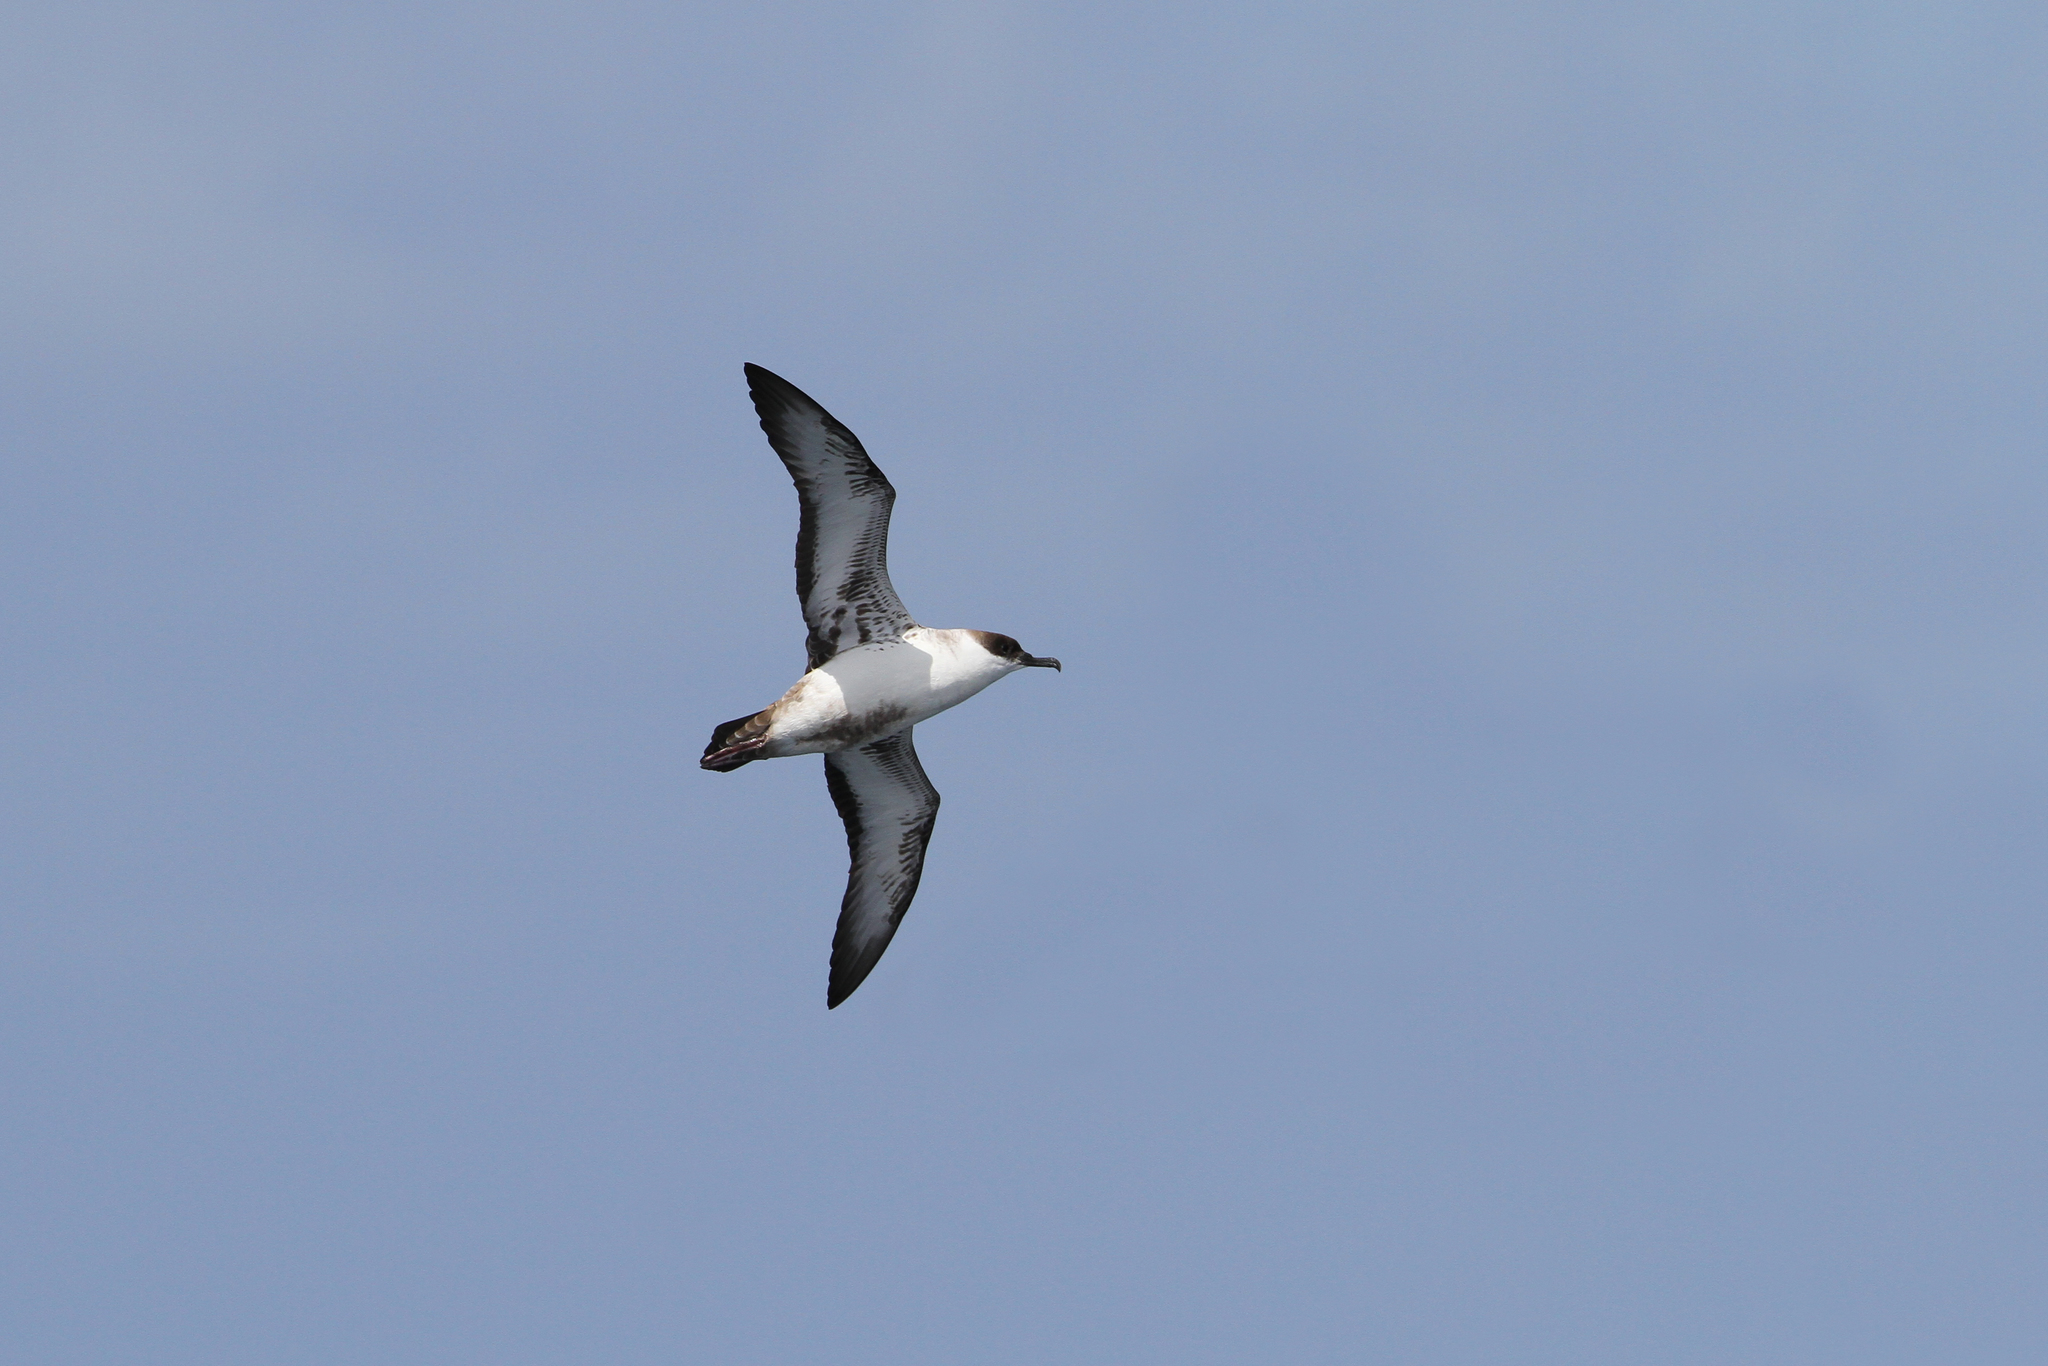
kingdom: Animalia
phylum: Chordata
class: Aves
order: Procellariiformes
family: Procellariidae
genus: Puffinus
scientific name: Puffinus gravis
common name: Great shearwater
